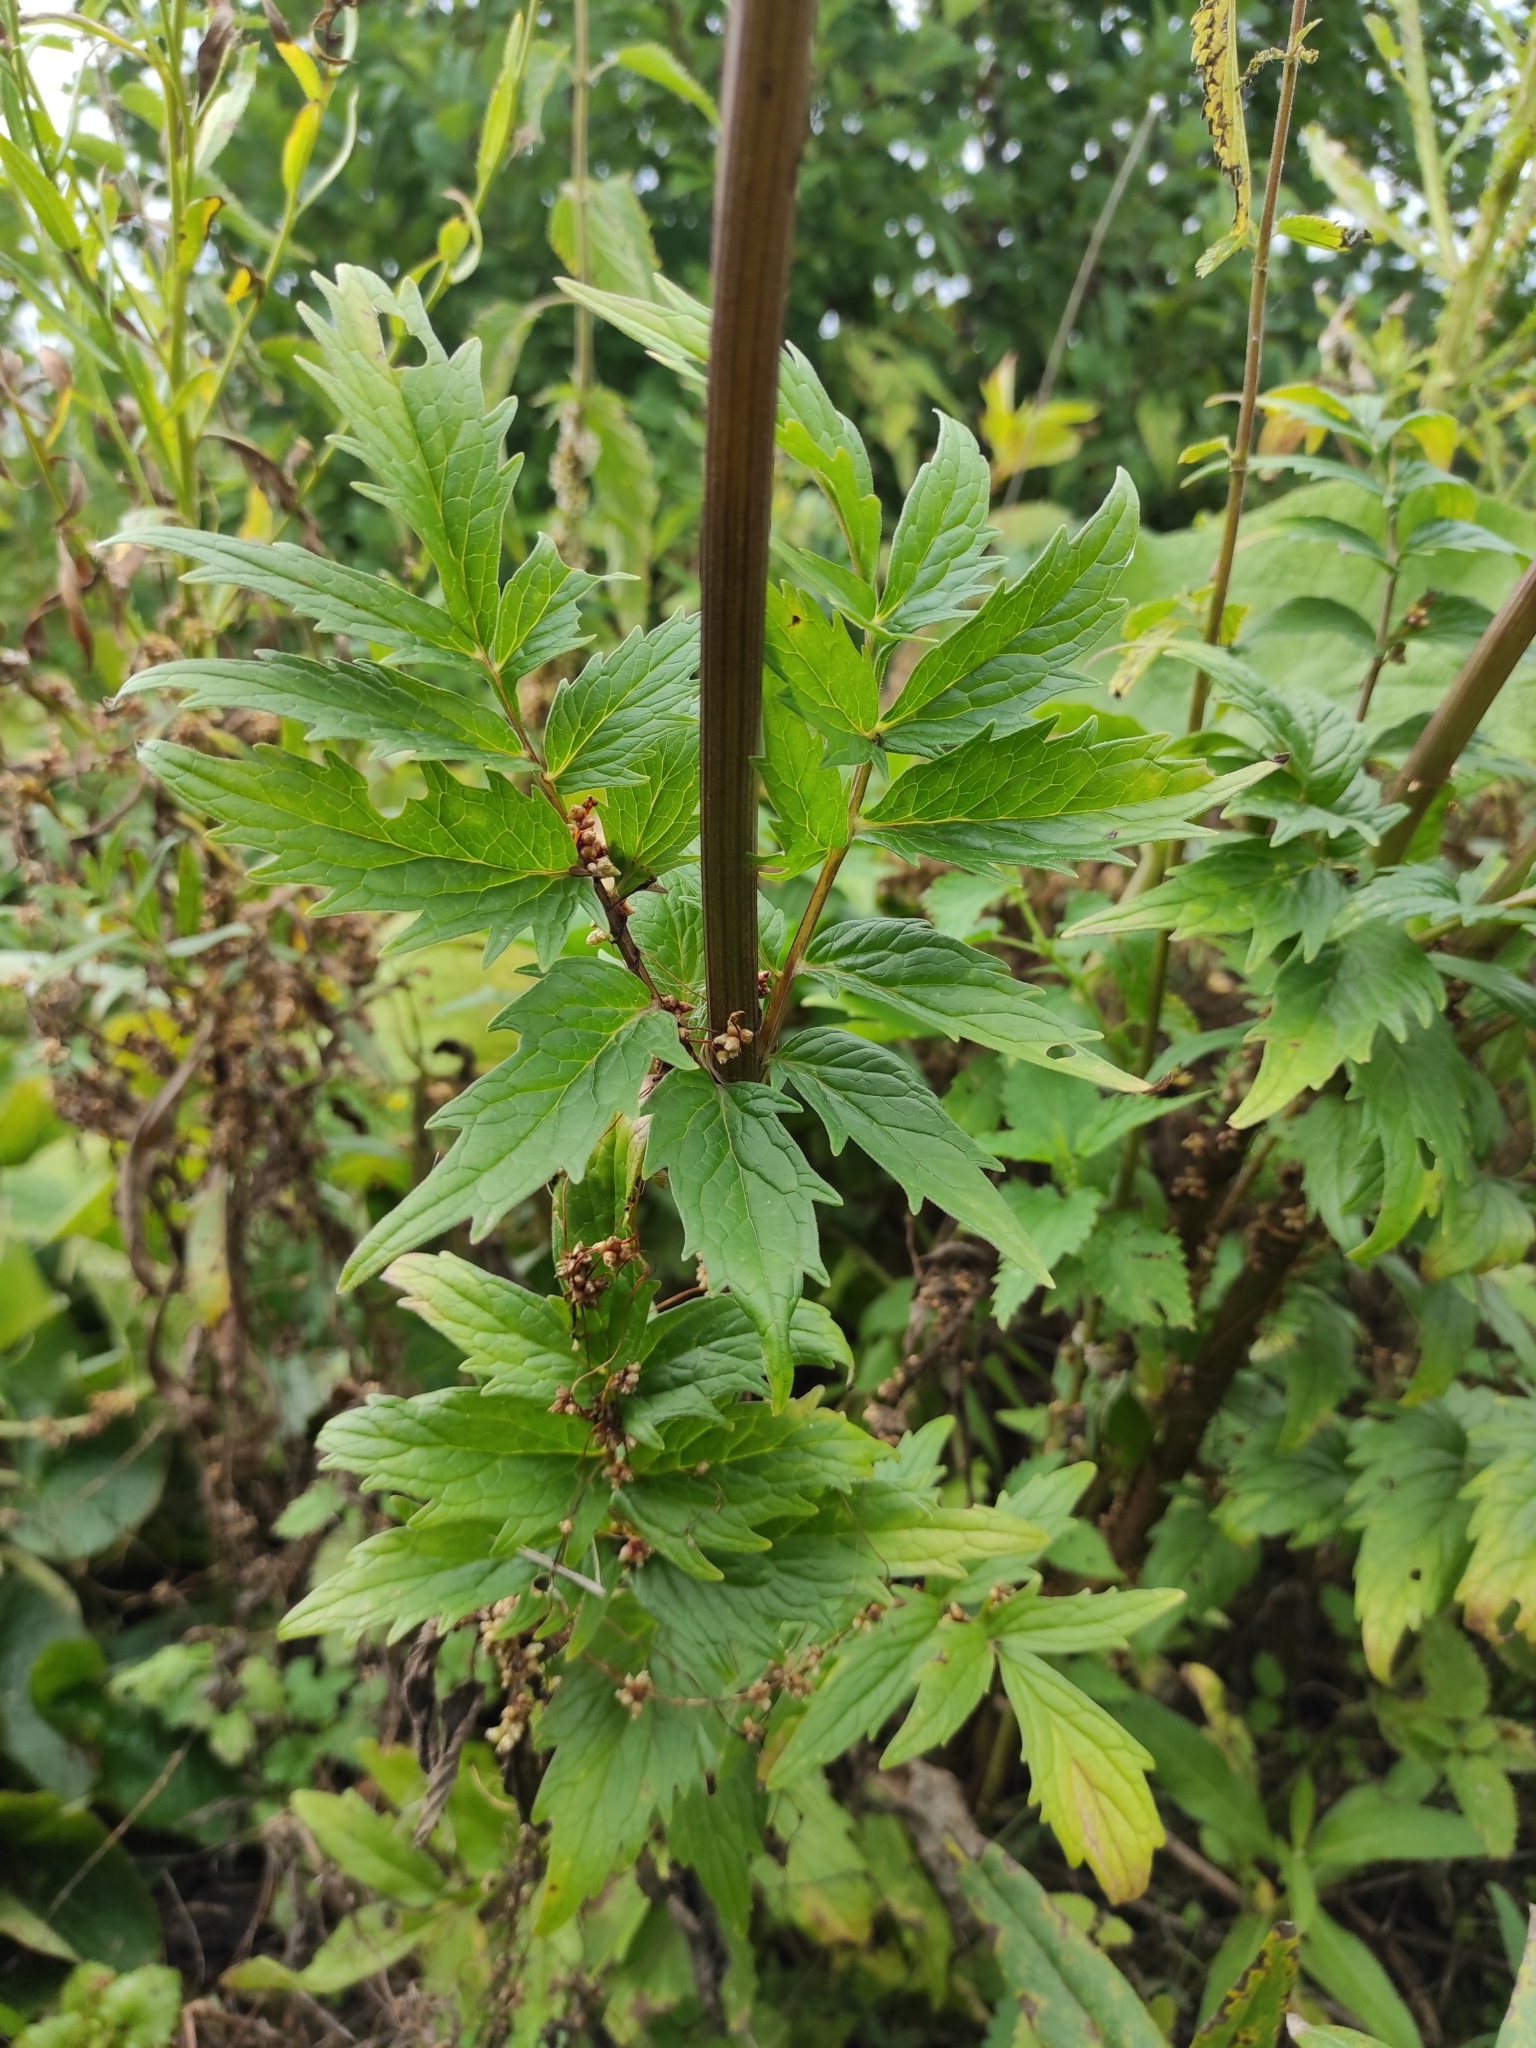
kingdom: Plantae
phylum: Tracheophyta
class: Magnoliopsida
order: Dipsacales
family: Caprifoliaceae
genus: Valeriana
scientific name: Valeriana wolgensis
